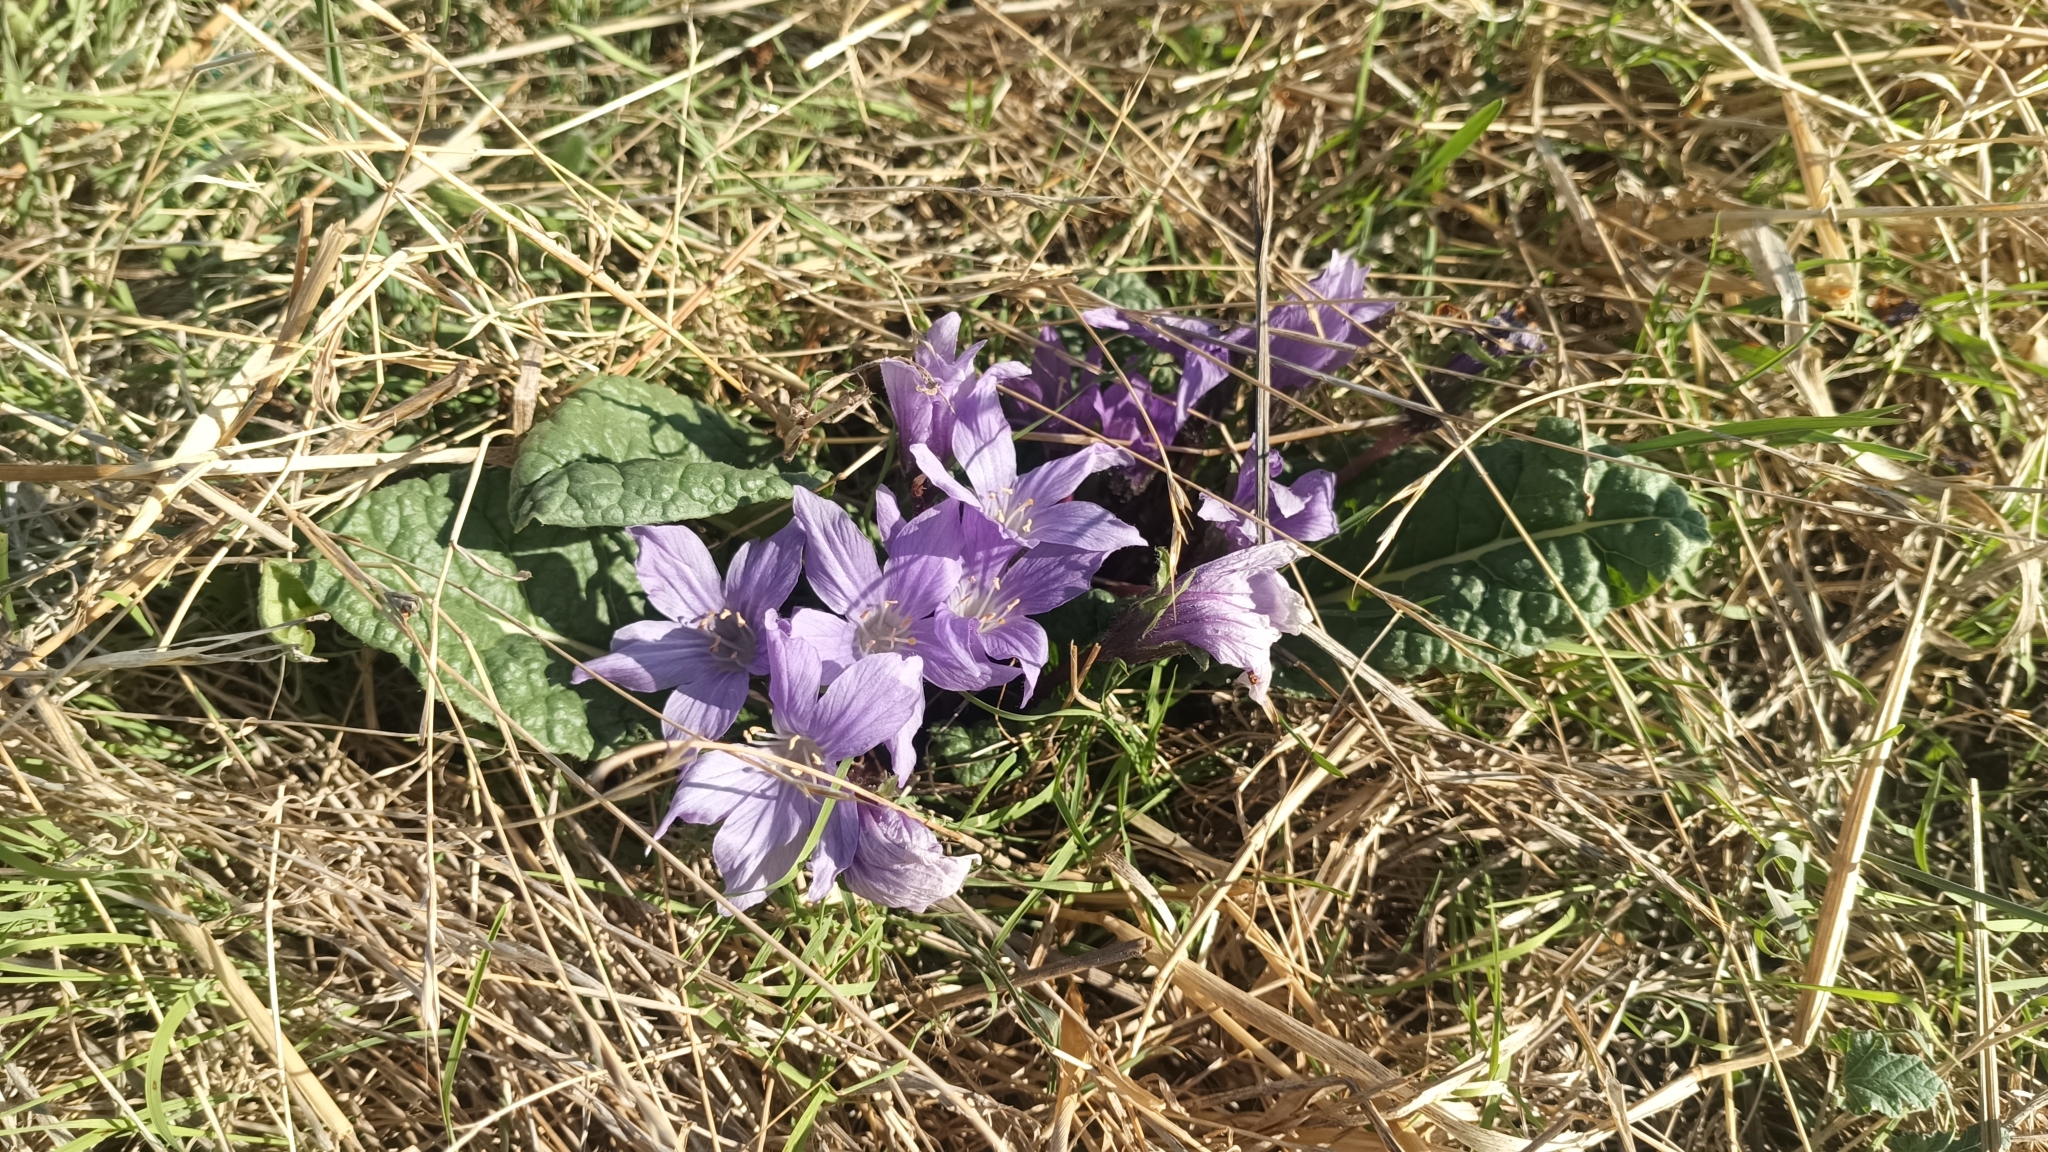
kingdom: Plantae
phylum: Tracheophyta
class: Magnoliopsida
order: Solanales
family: Solanaceae
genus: Mandragora
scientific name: Mandragora officinarum
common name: Mandrake
